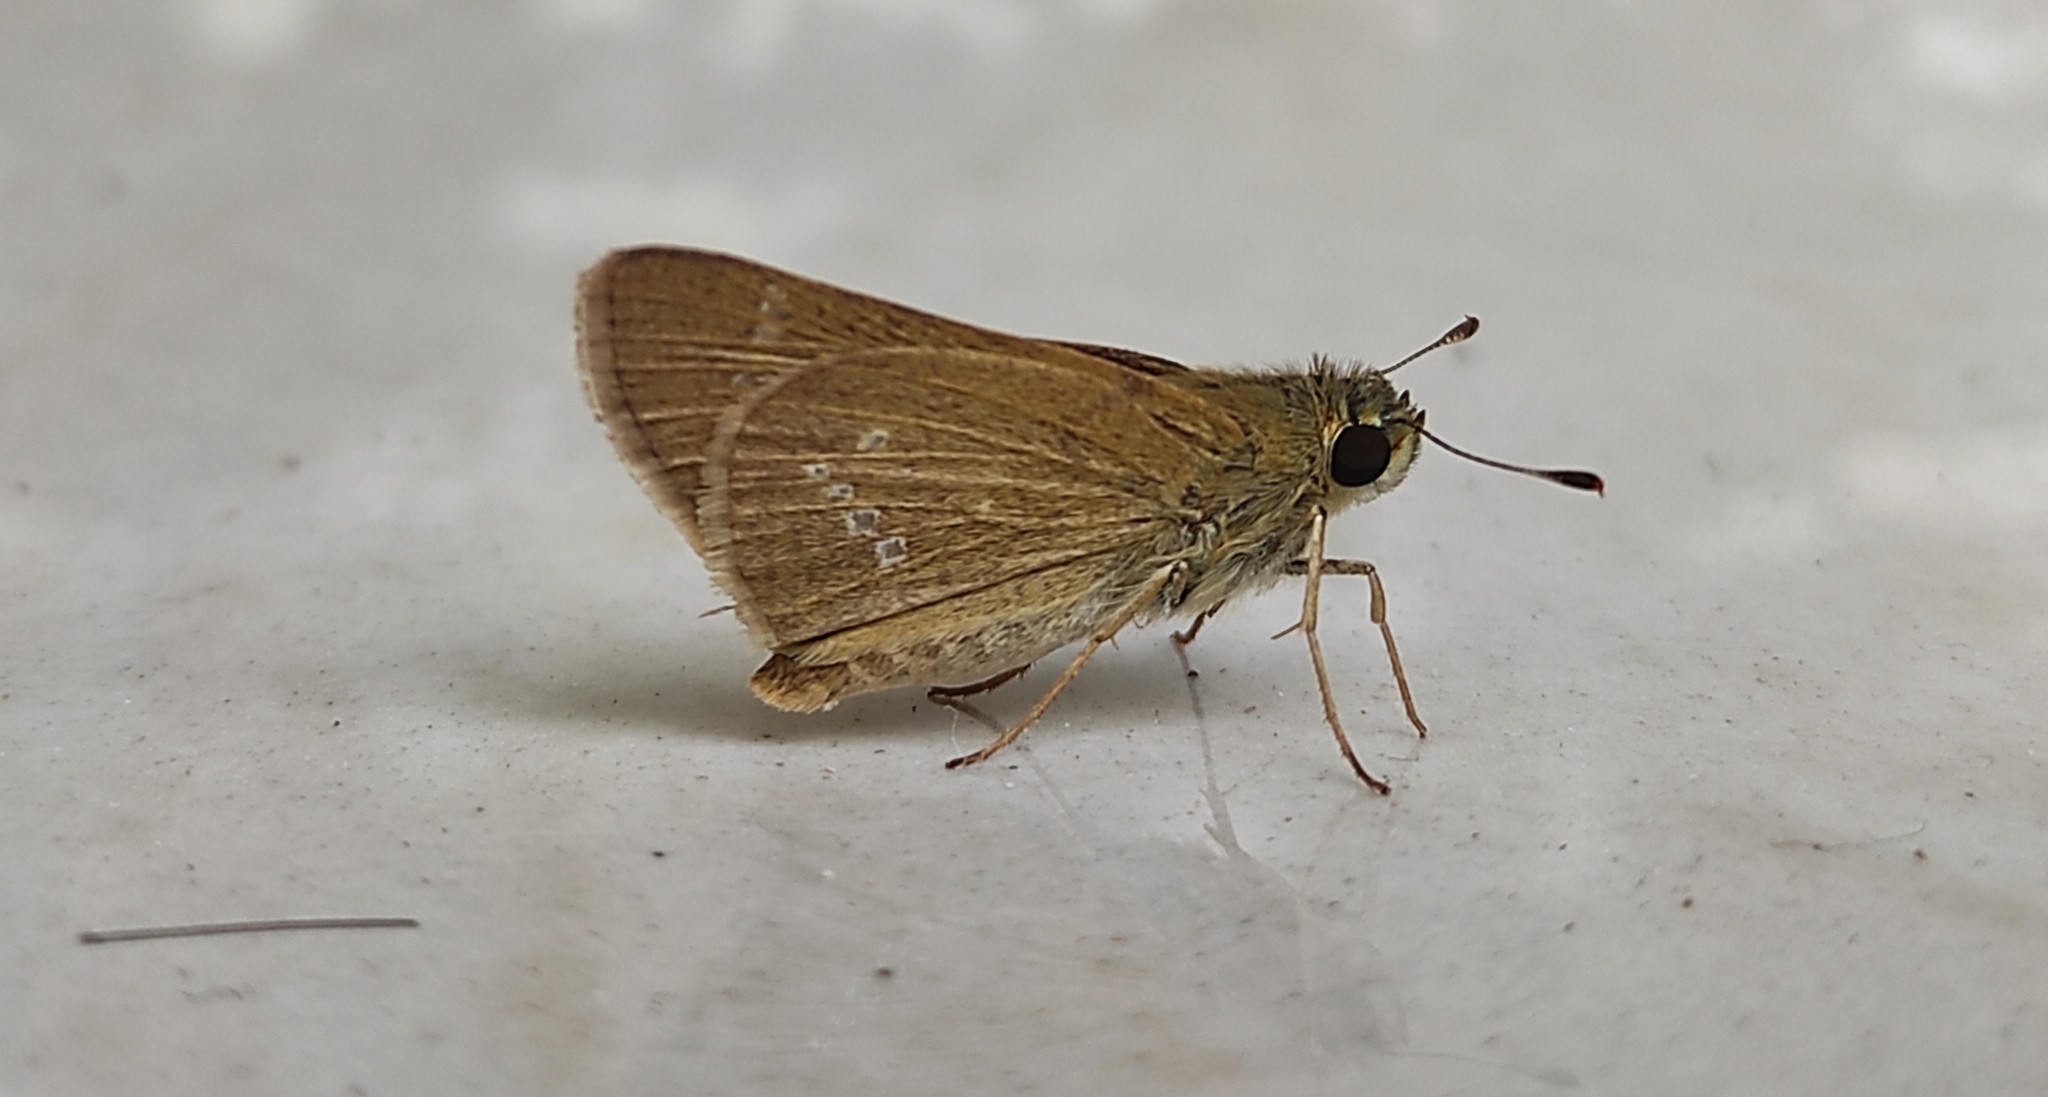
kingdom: Animalia
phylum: Arthropoda
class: Insecta
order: Lepidoptera
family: Hesperiidae
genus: Parnara
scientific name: Parnara naso
